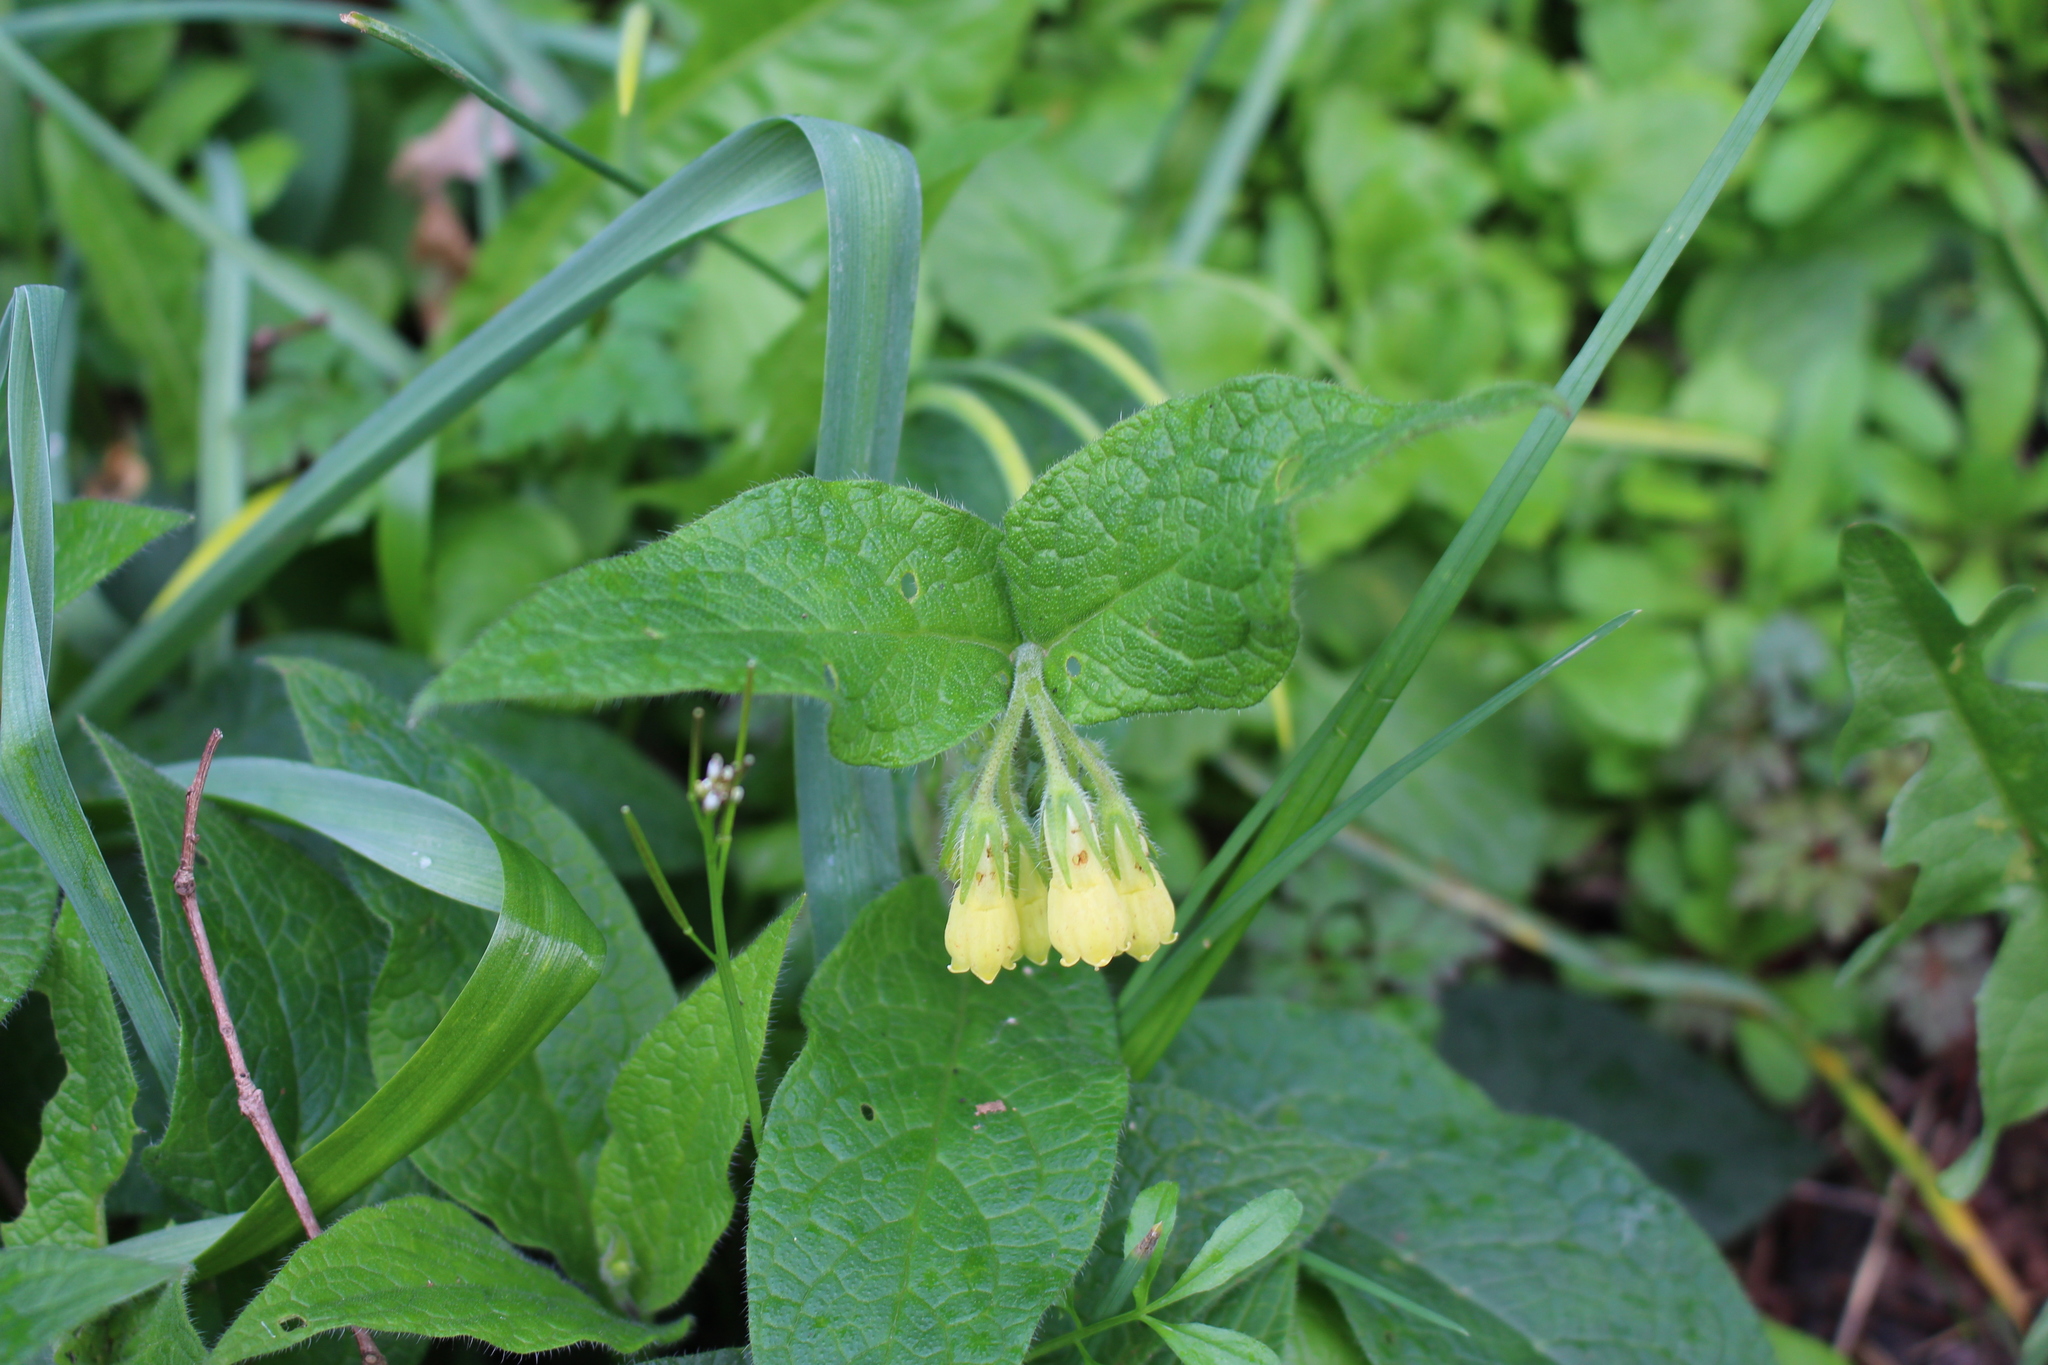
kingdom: Plantae
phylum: Tracheophyta
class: Magnoliopsida
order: Boraginales
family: Boraginaceae
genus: Symphytum
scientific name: Symphytum tuberosum
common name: Tuberous comfrey
